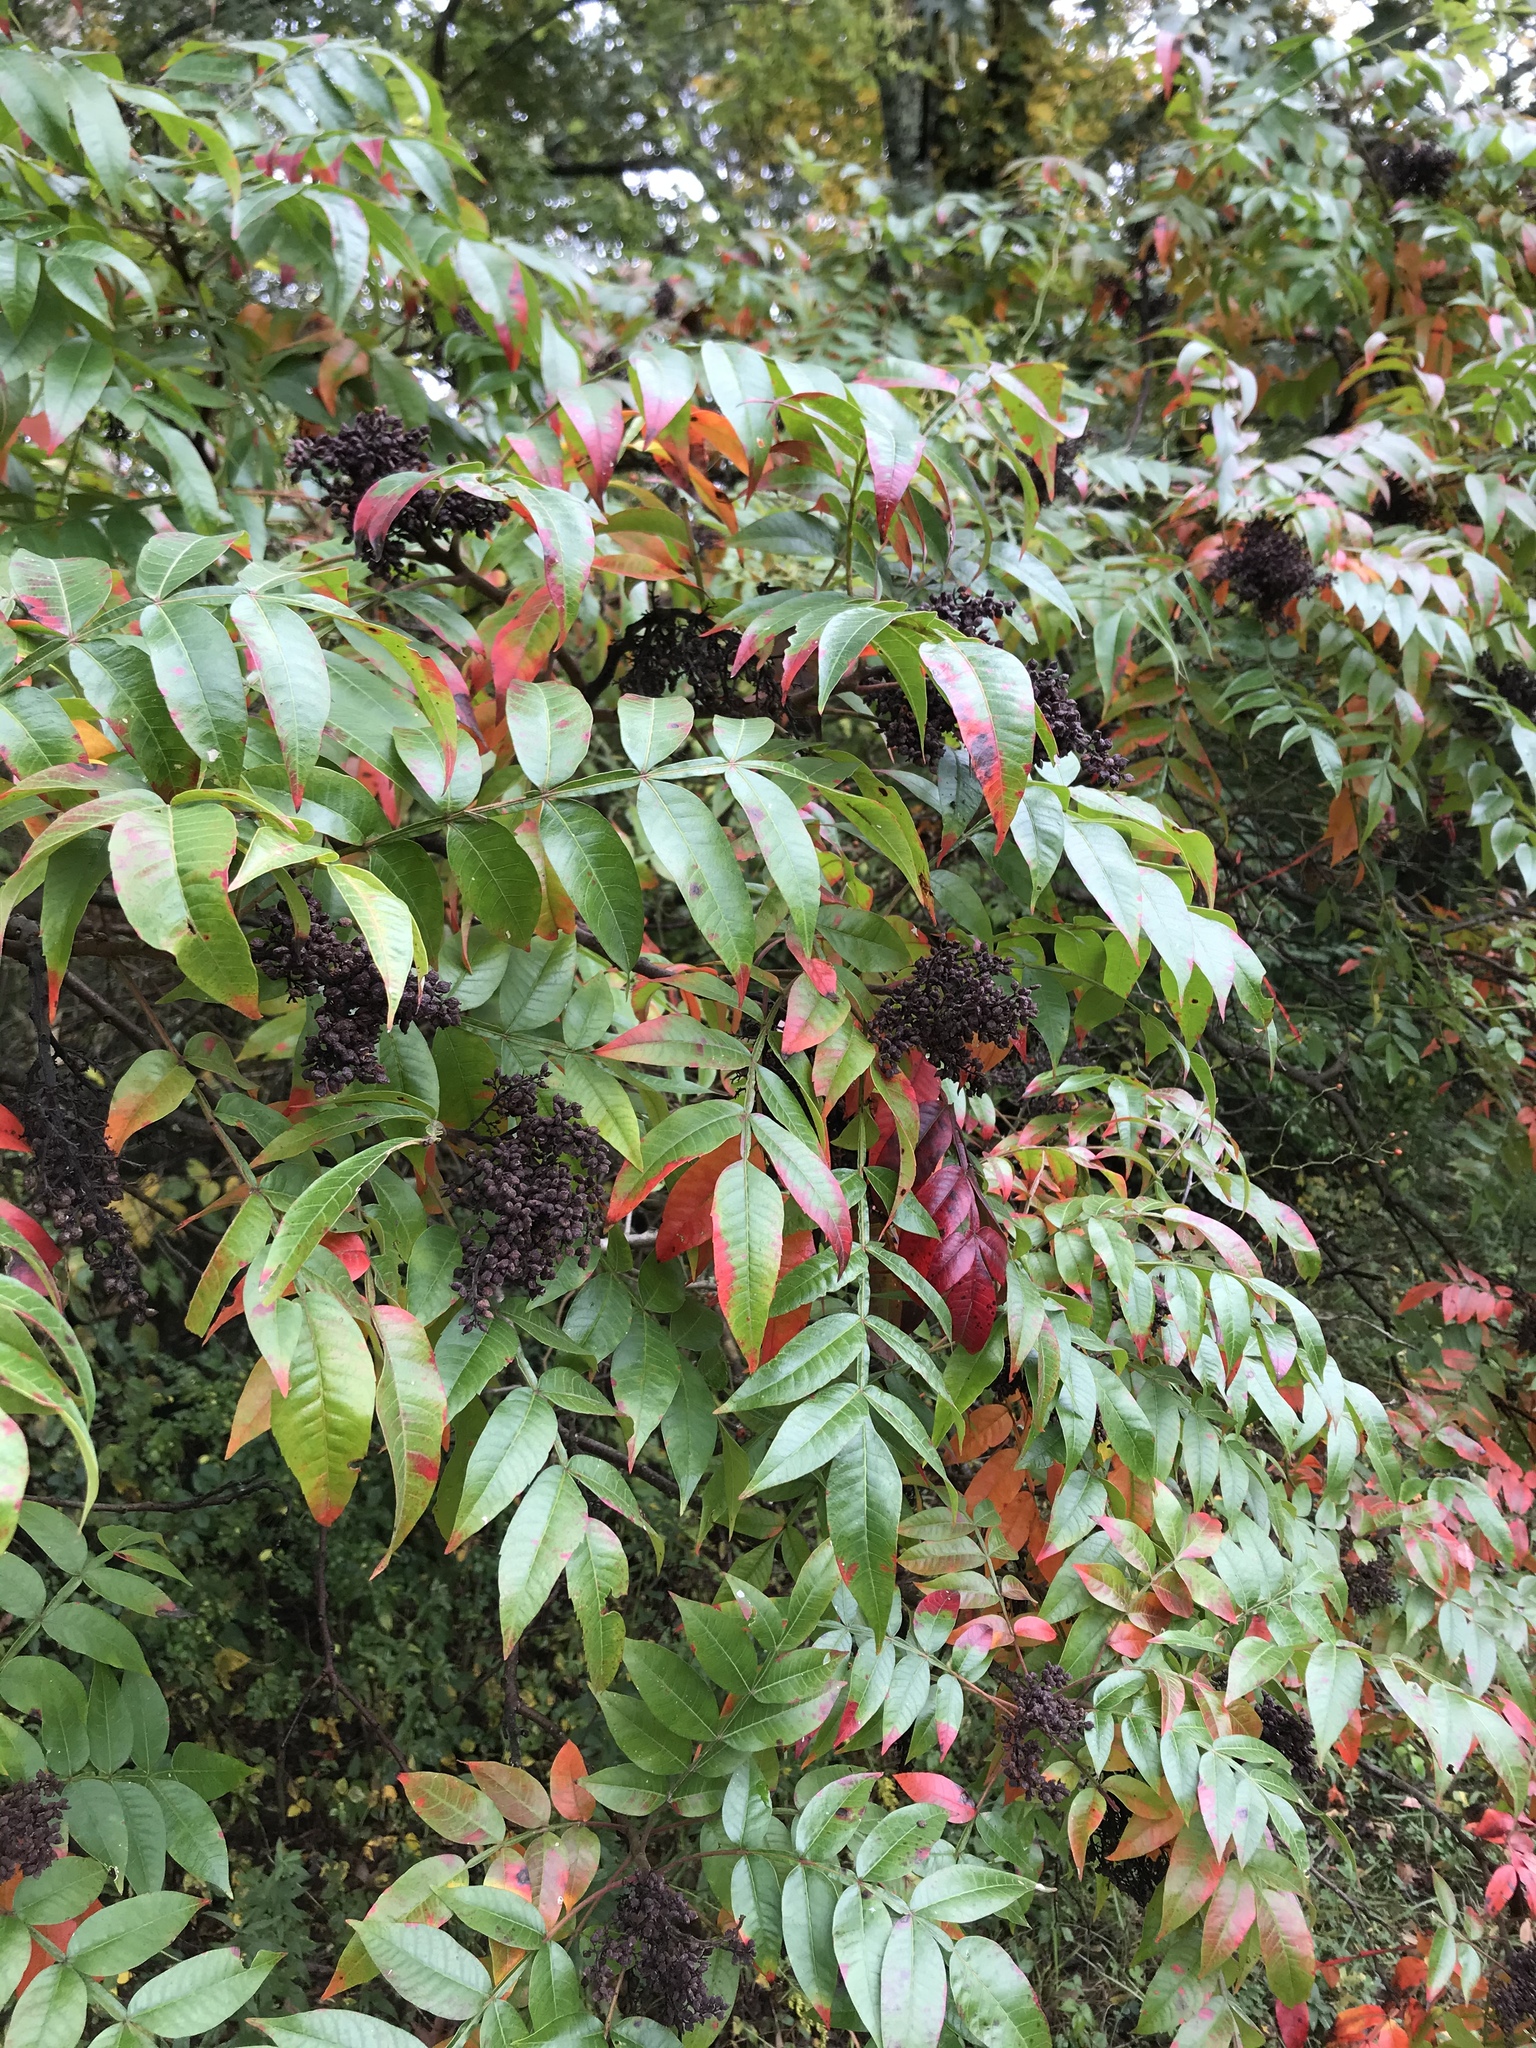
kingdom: Plantae
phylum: Tracheophyta
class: Magnoliopsida
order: Sapindales
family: Anacardiaceae
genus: Rhus
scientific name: Rhus copallina
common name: Shining sumac
